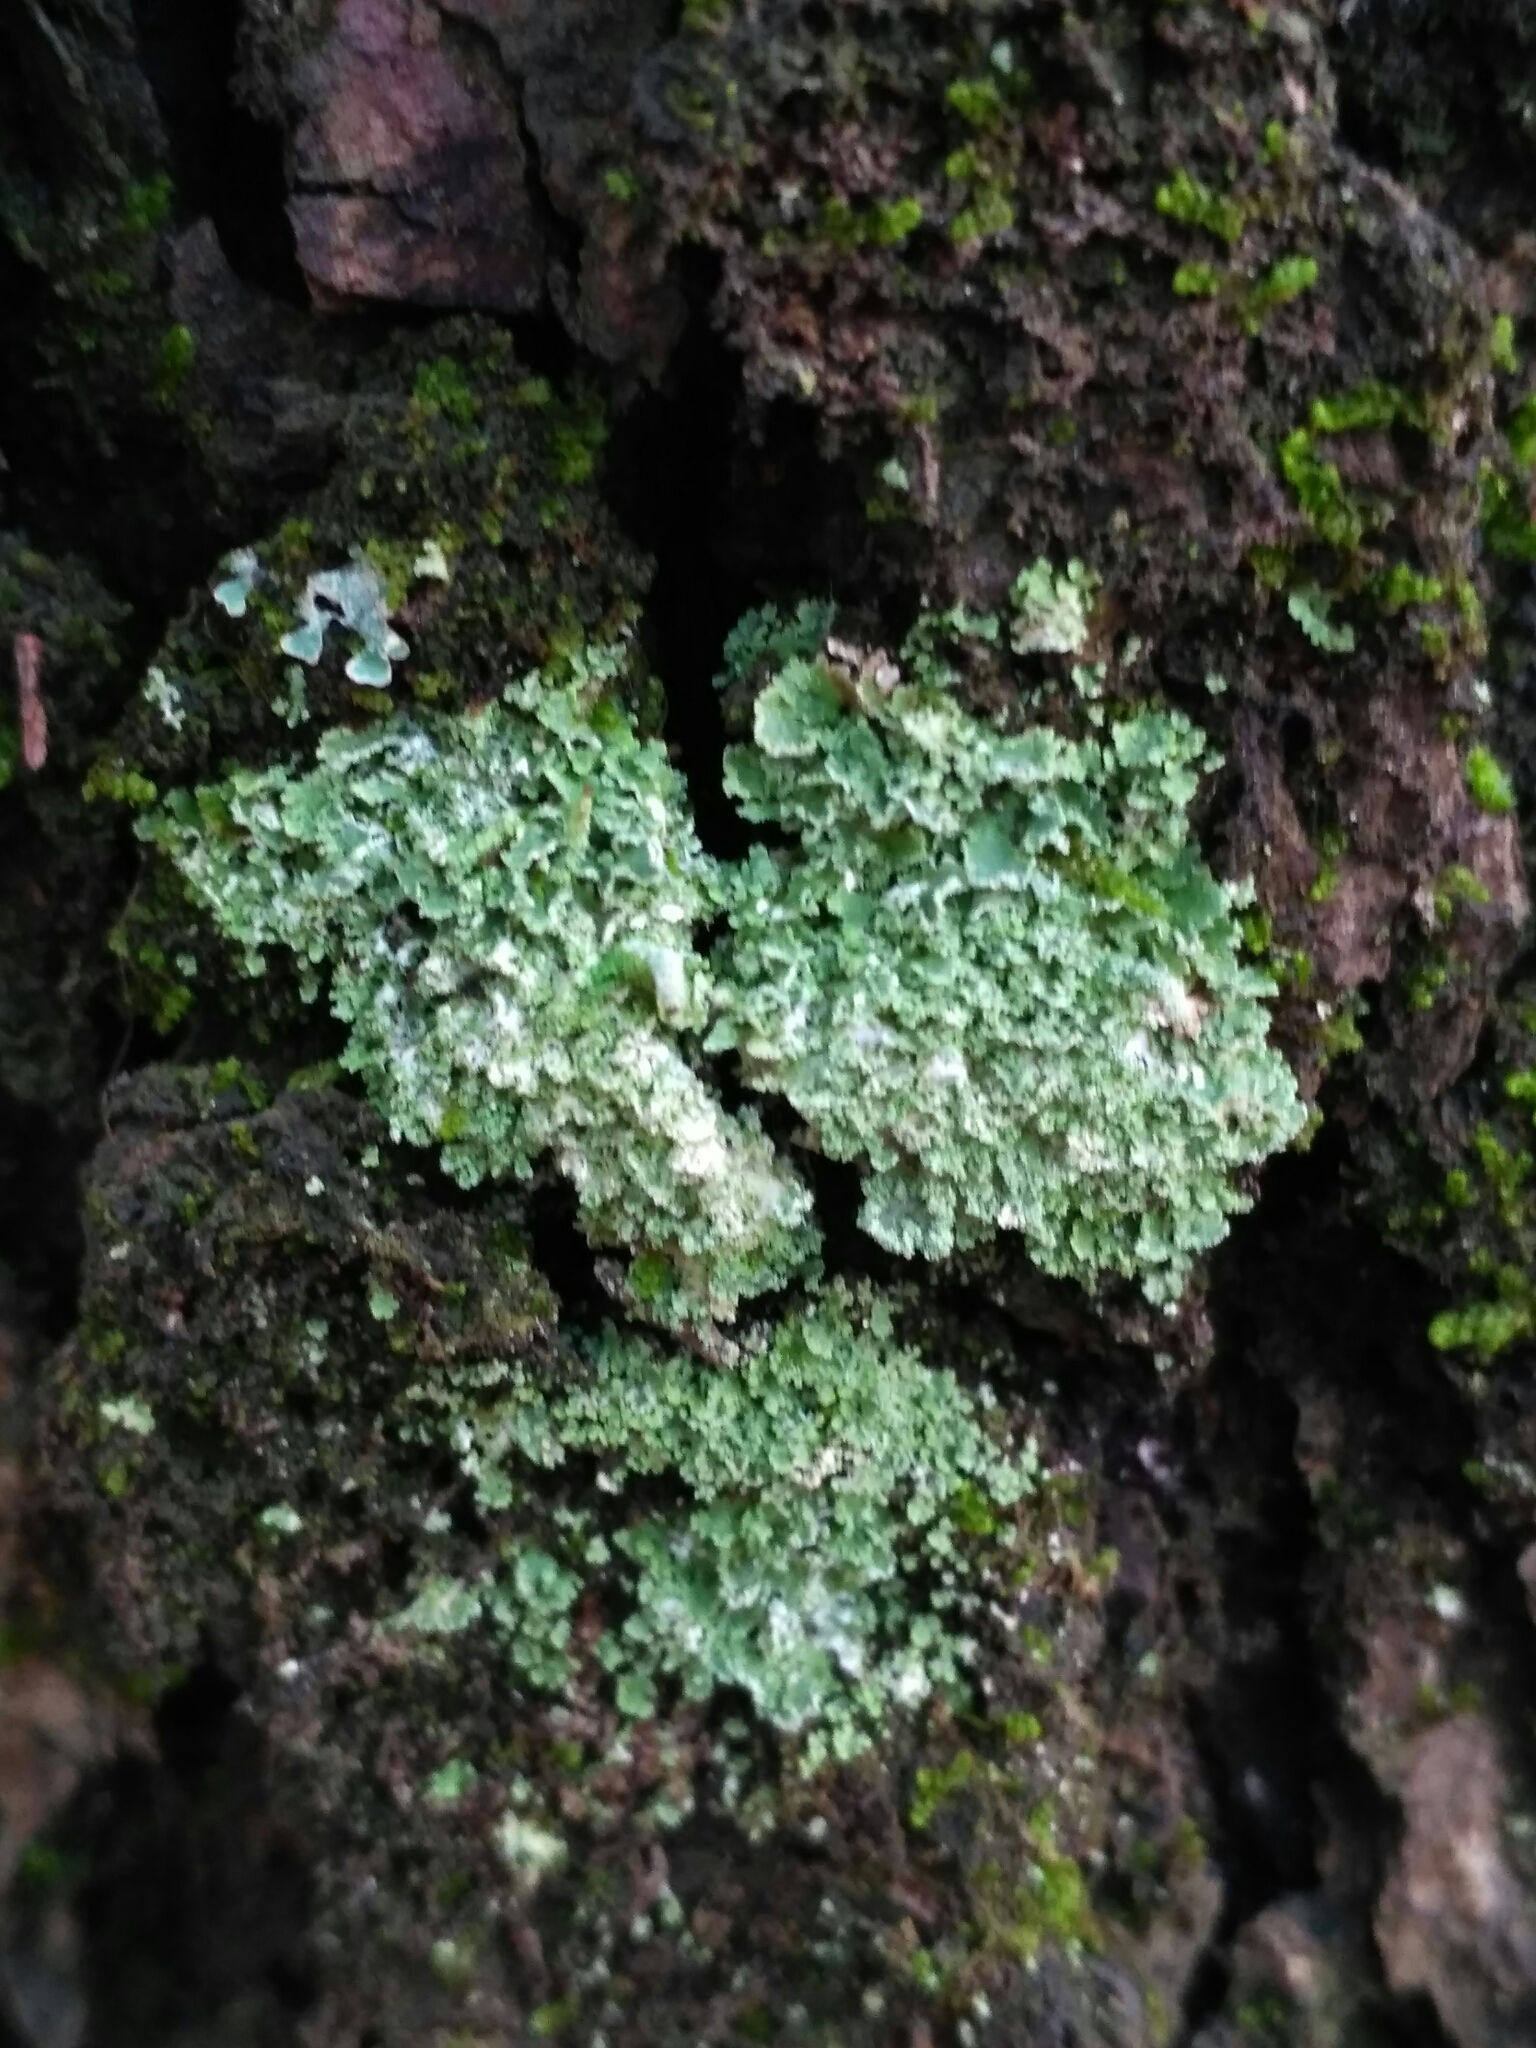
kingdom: Fungi
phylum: Ascomycota
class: Lecanoromycetes
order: Lecanorales
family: Cladoniaceae
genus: Cladonia
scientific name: Cladonia coniocraea
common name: Common powderhorn
